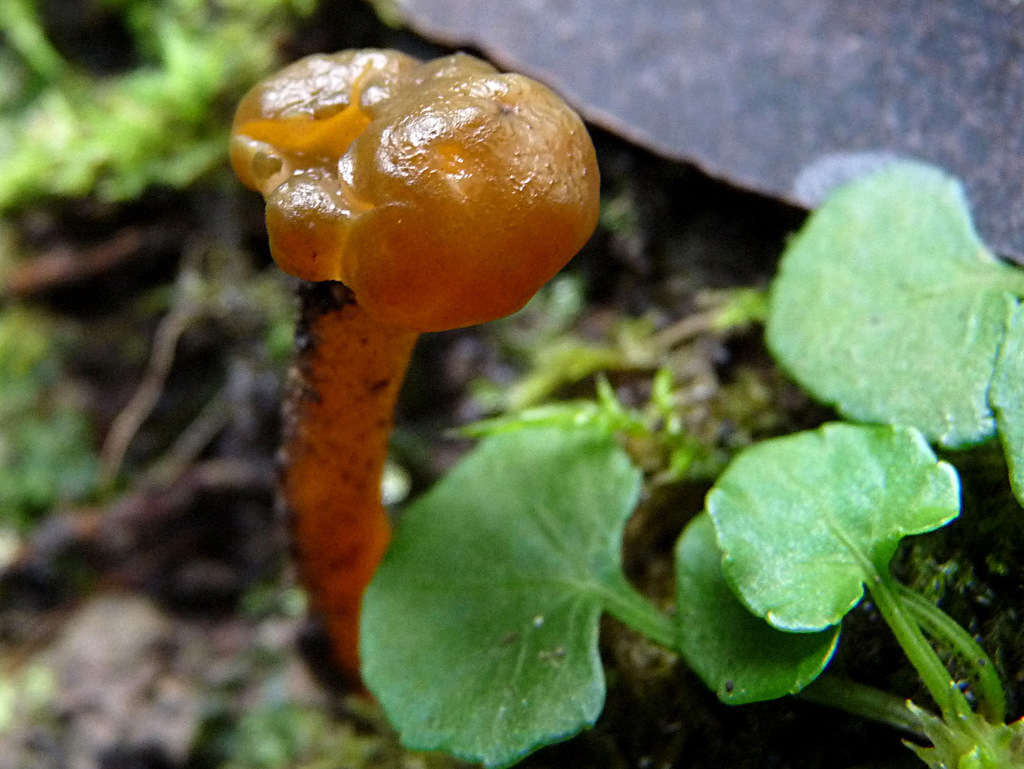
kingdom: Fungi
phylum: Ascomycota
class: Leotiomycetes
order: Leotiales
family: Leotiaceae
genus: Leotia
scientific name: Leotia lubrica
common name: Jellybaby
